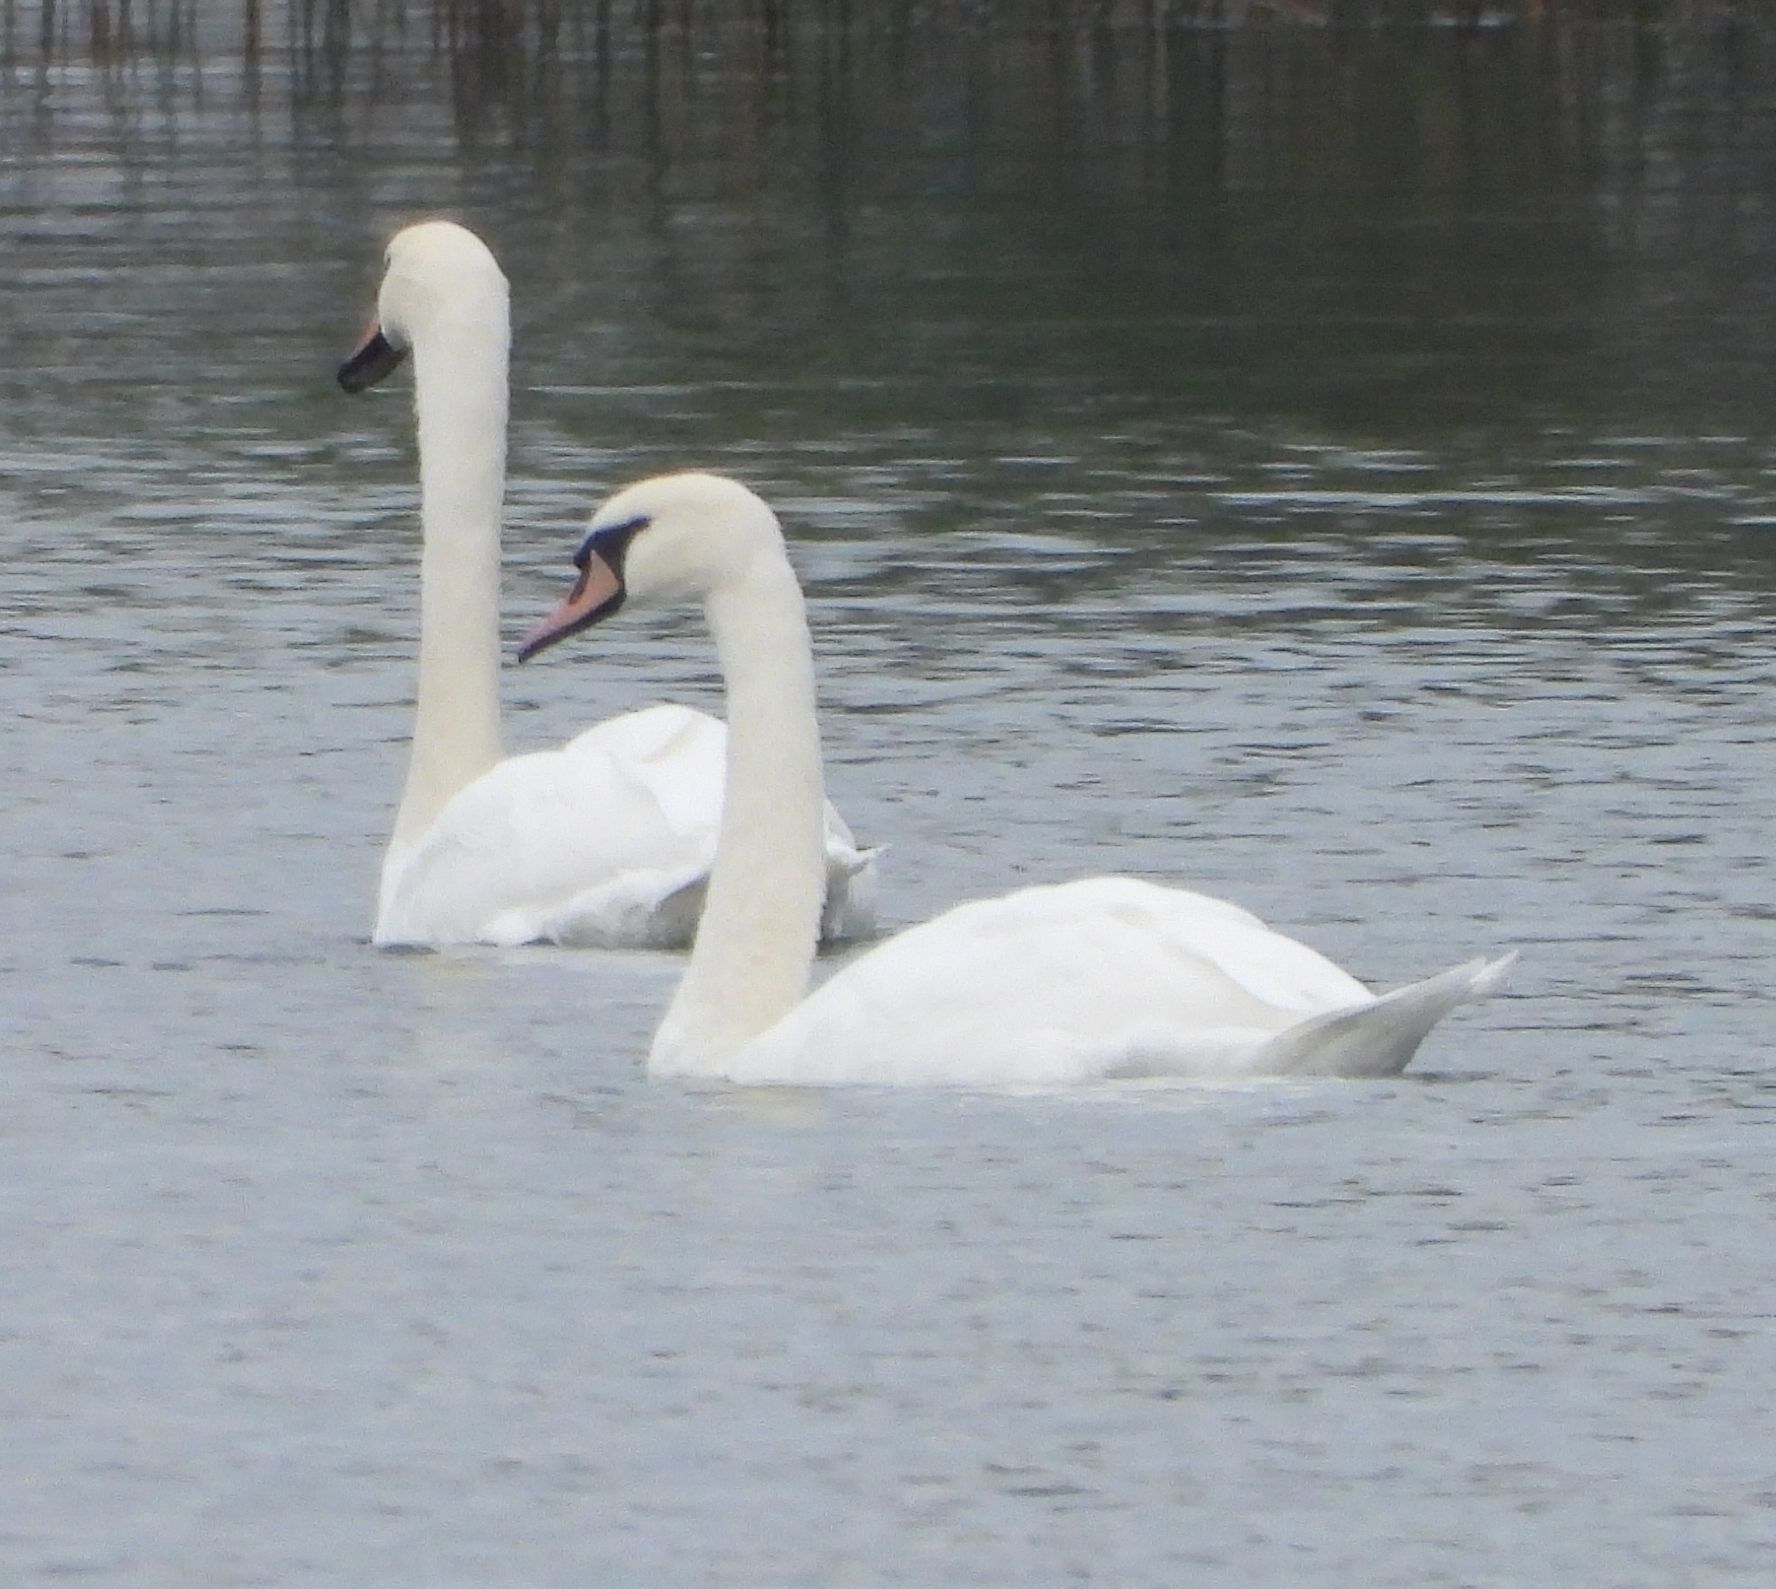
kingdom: Animalia
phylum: Chordata
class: Aves
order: Anseriformes
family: Anatidae
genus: Cygnus
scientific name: Cygnus olor
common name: Mute swan
